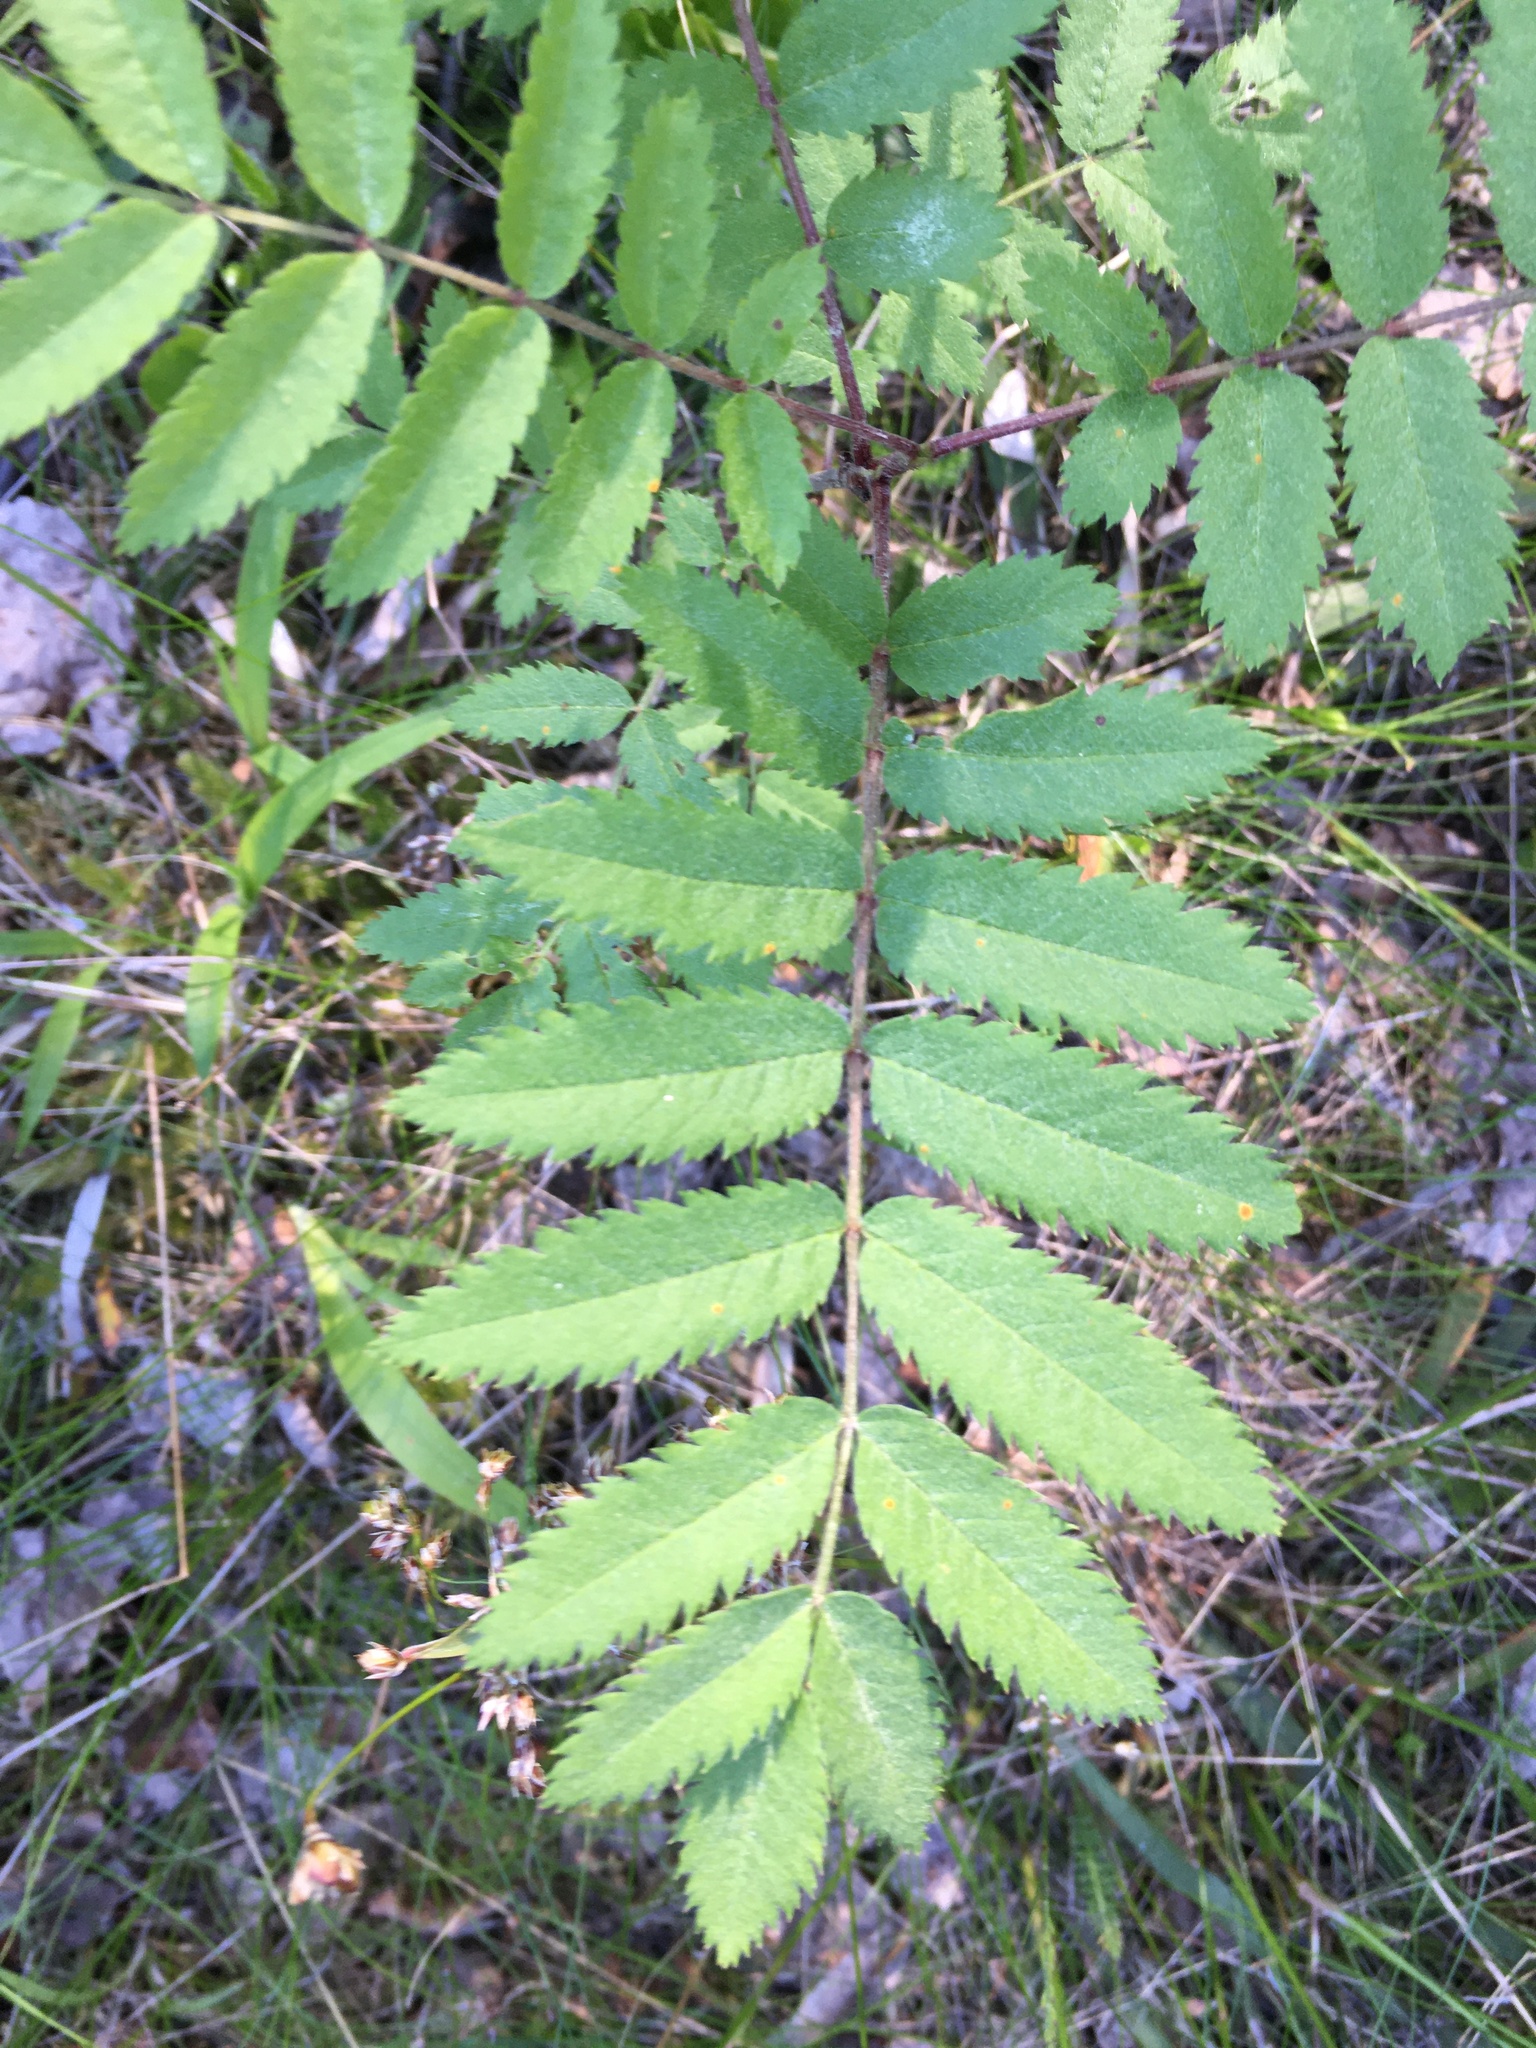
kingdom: Plantae
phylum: Tracheophyta
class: Magnoliopsida
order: Rosales
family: Rosaceae
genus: Sorbus
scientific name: Sorbus aucuparia
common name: Rowan
